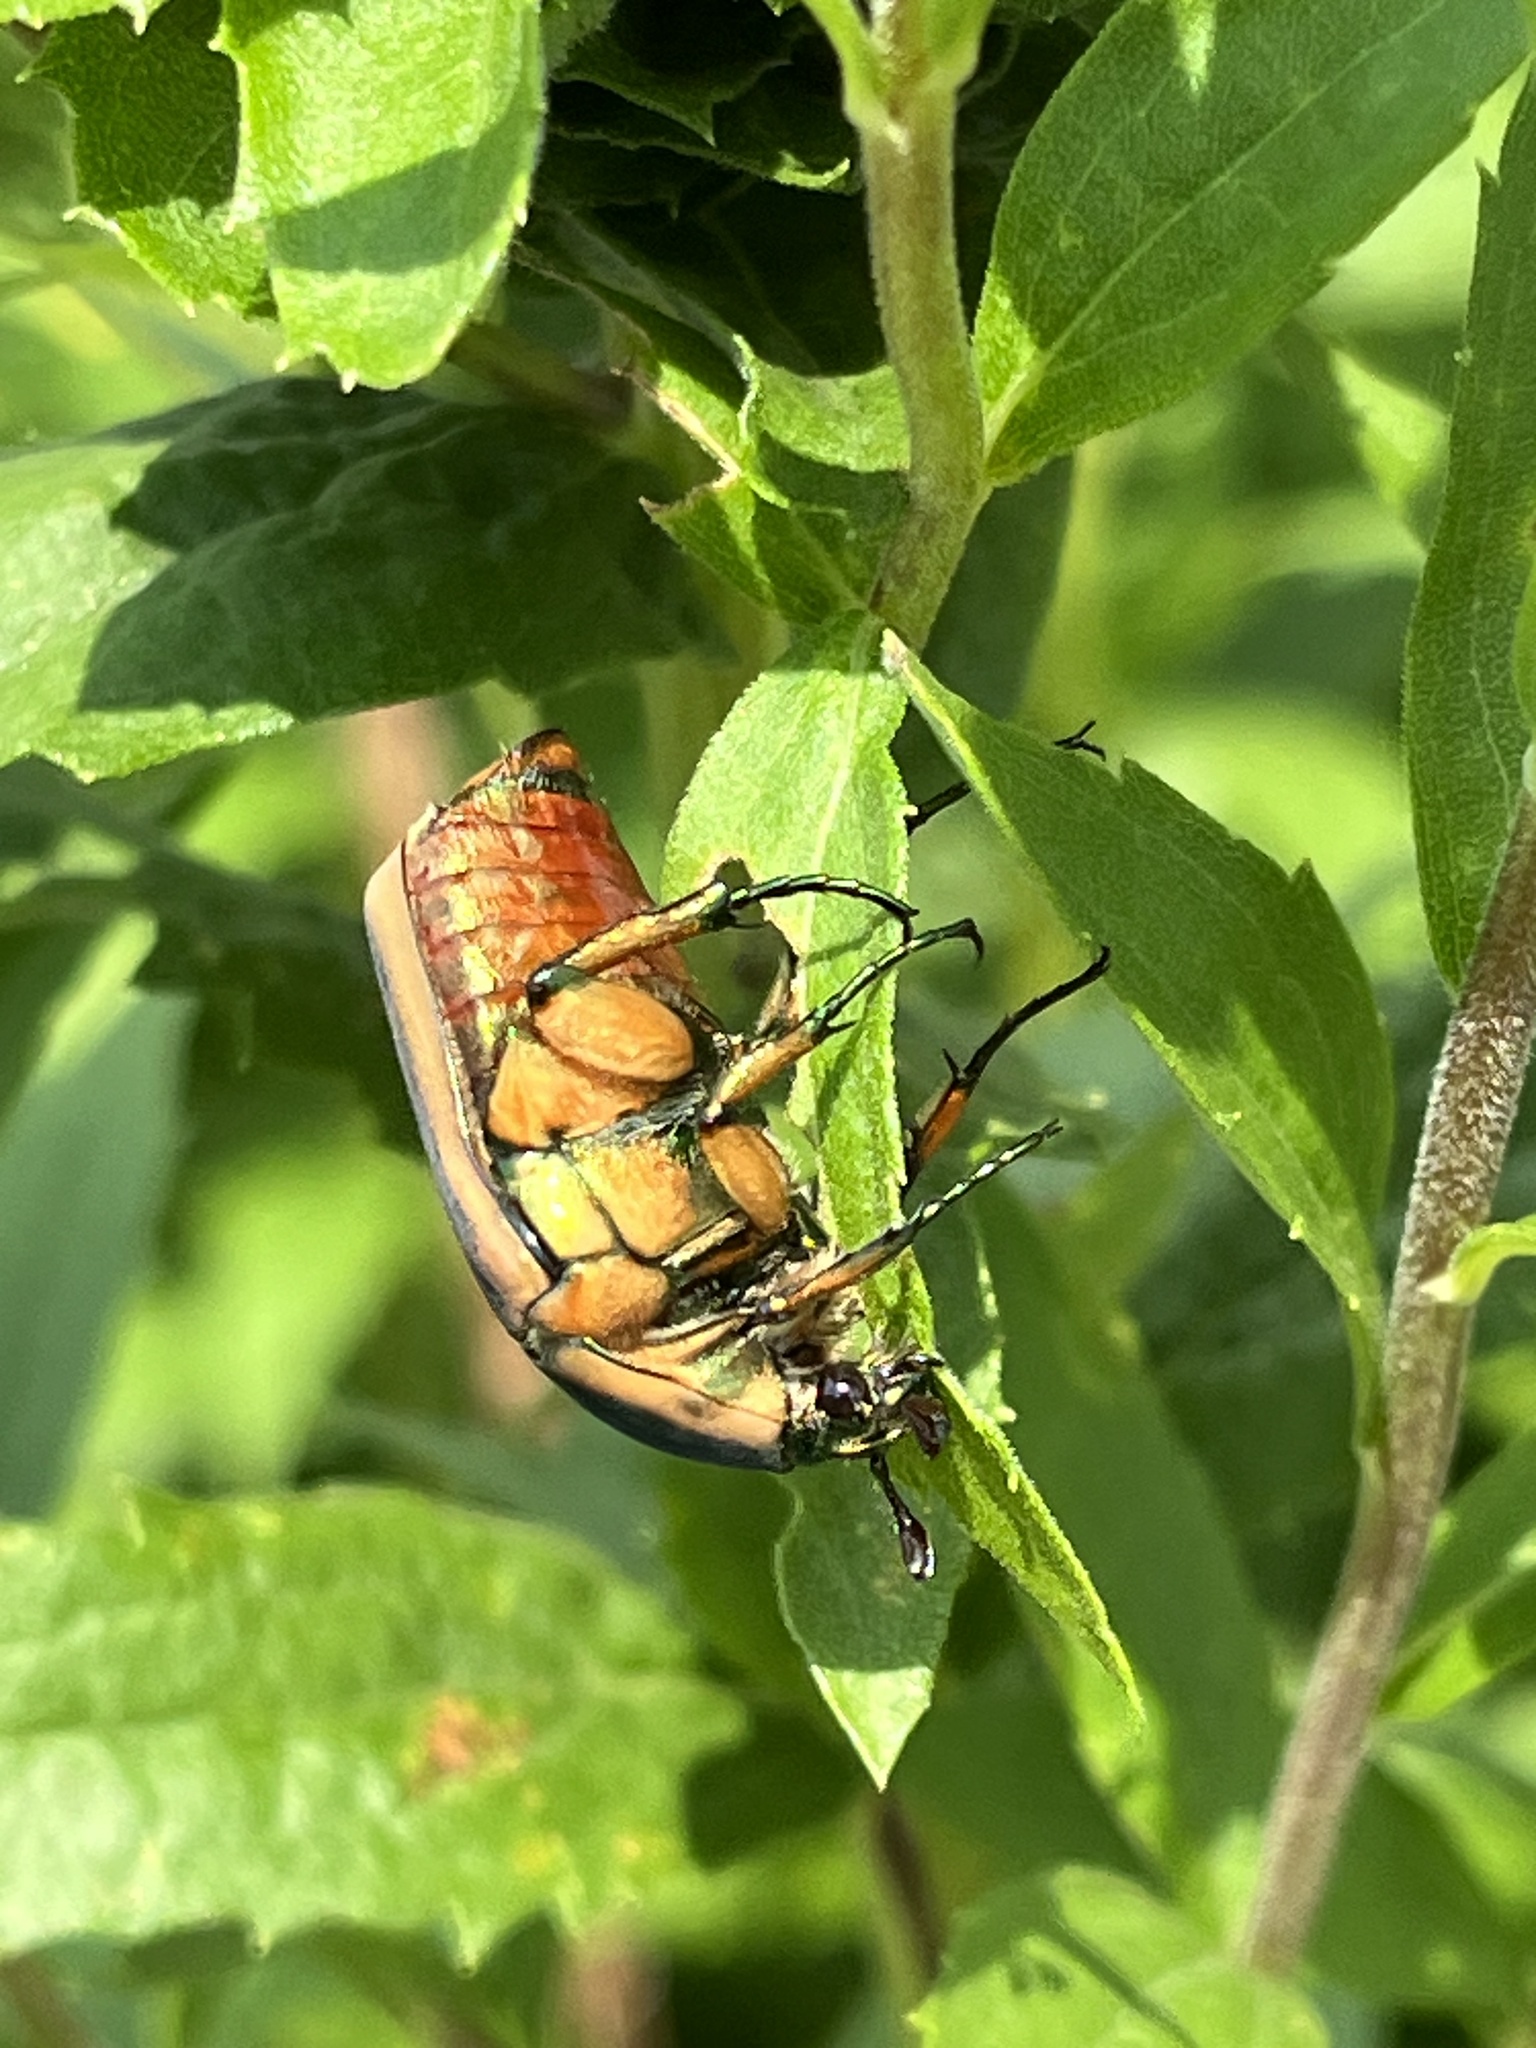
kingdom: Animalia
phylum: Arthropoda
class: Insecta
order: Coleoptera
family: Scarabaeidae
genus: Cotinis
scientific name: Cotinis nitida
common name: Common green june beetle
